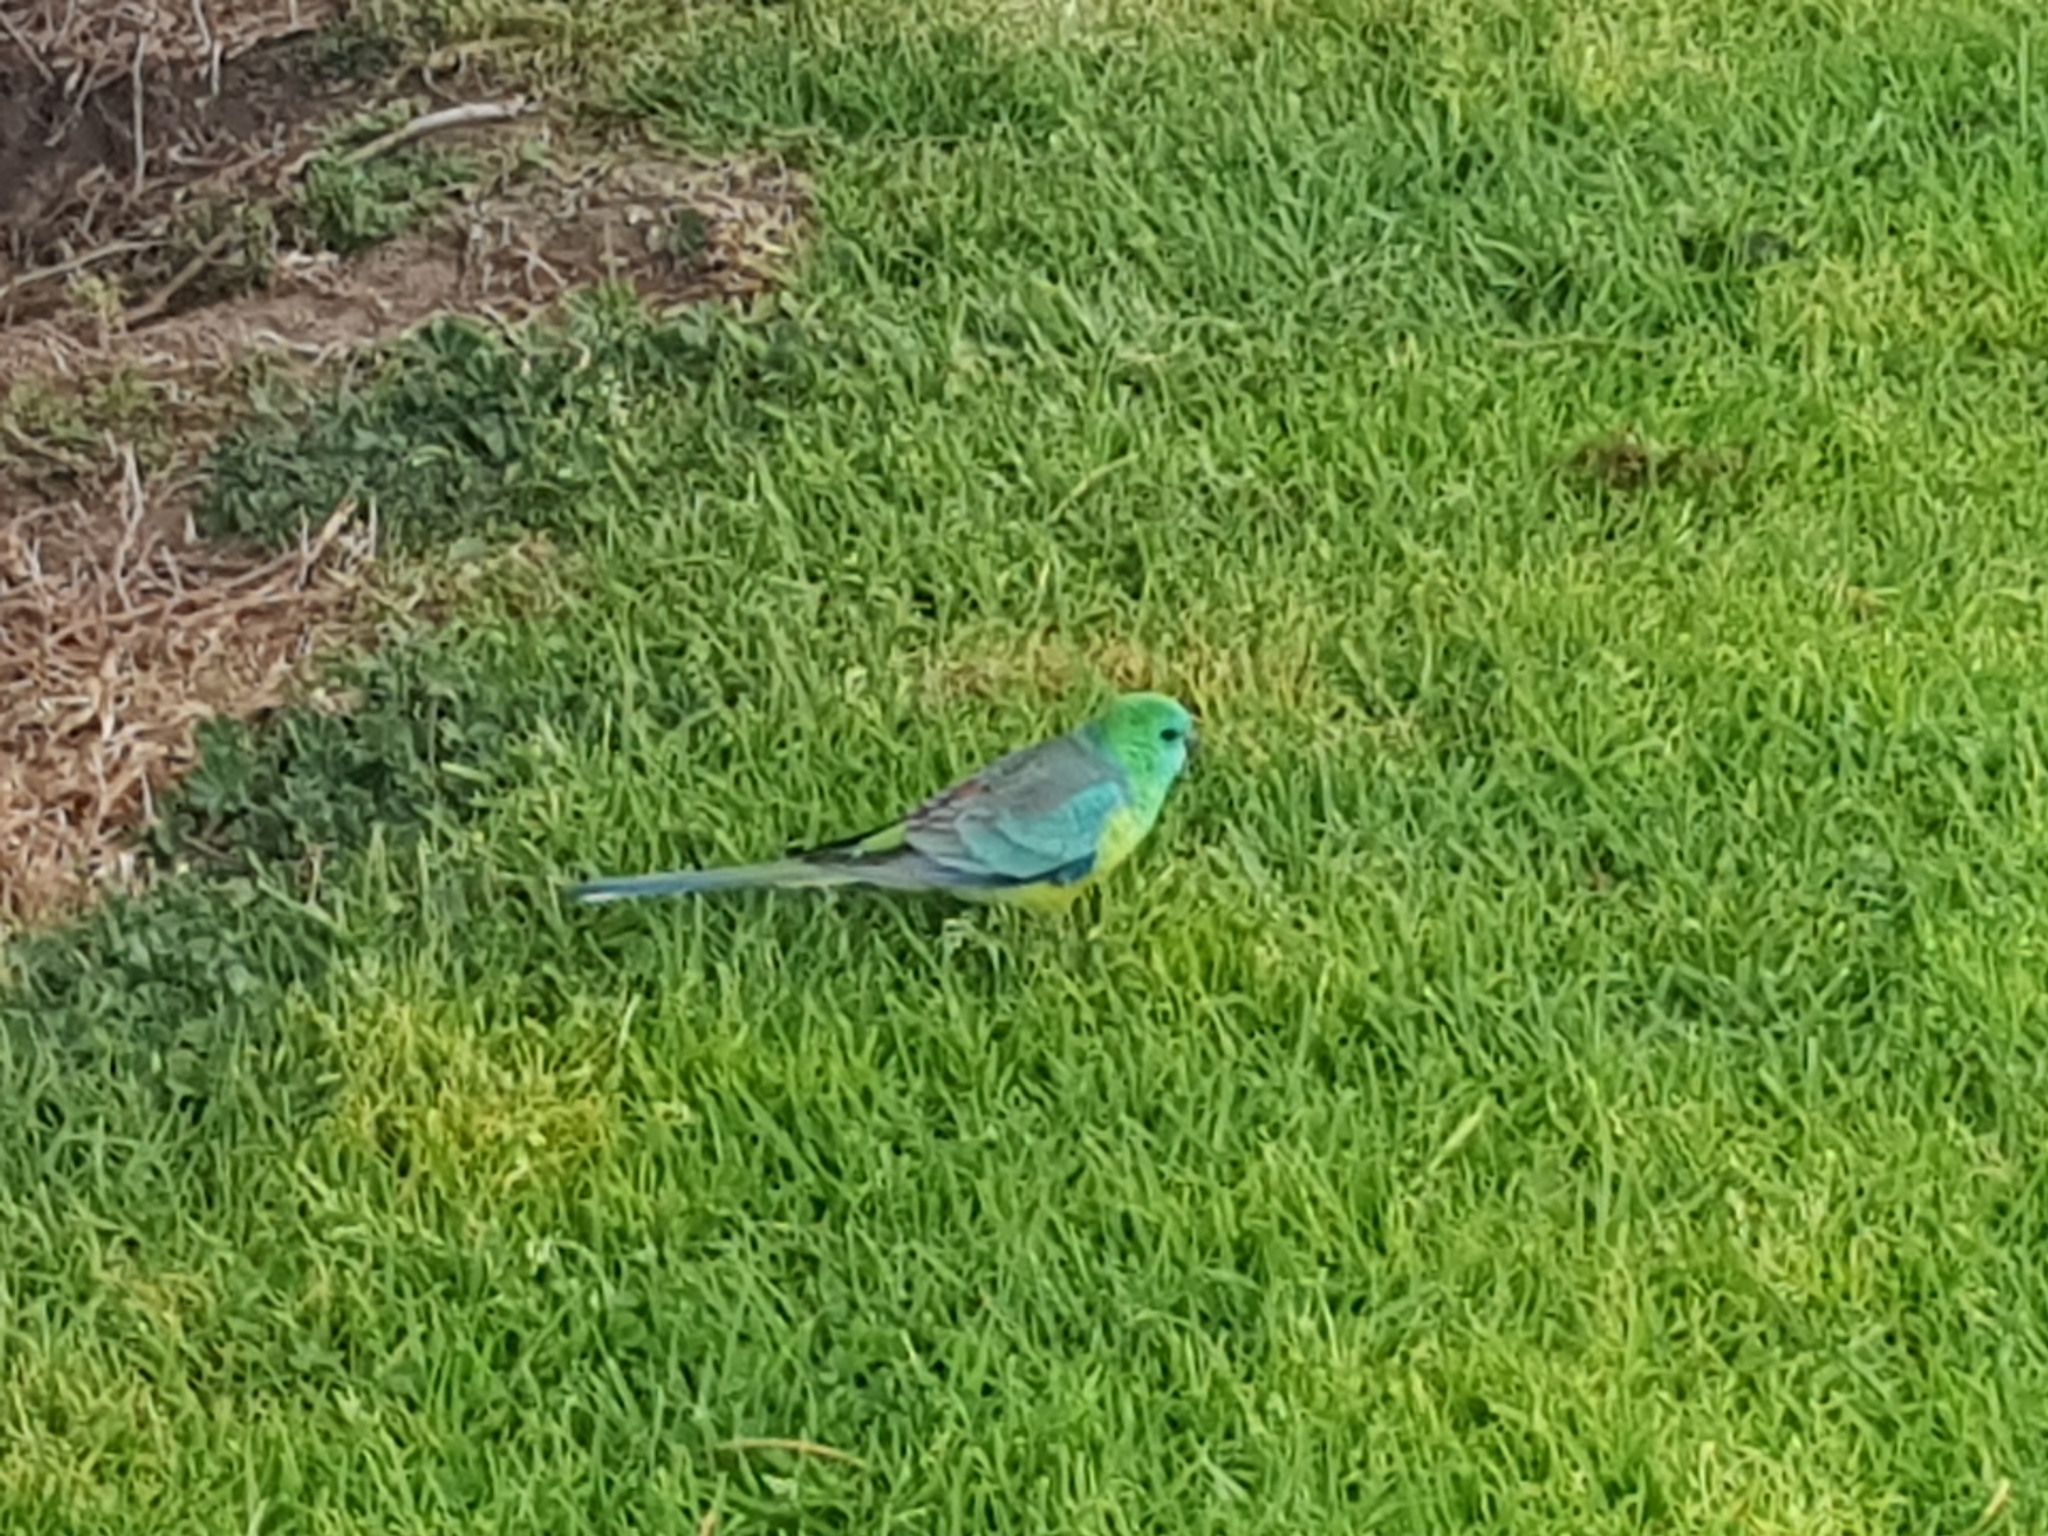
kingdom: Animalia
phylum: Chordata
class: Aves
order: Psittaciformes
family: Psittacidae
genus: Psephotus
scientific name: Psephotus haematonotus
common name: Red-rumped parrot
